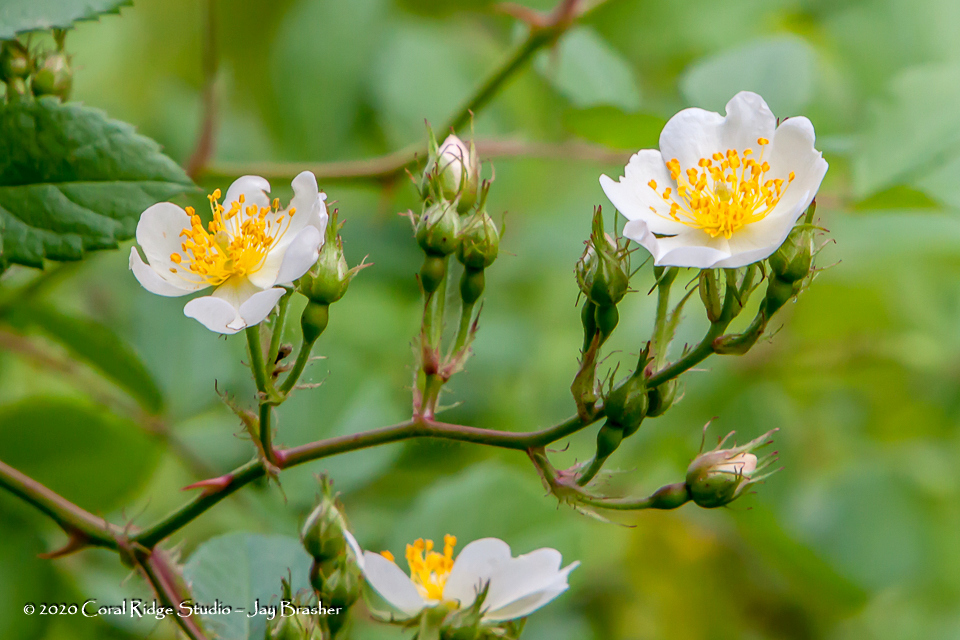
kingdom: Plantae
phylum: Tracheophyta
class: Magnoliopsida
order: Rosales
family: Rosaceae
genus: Rosa
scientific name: Rosa multiflora
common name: Multiflora rose
